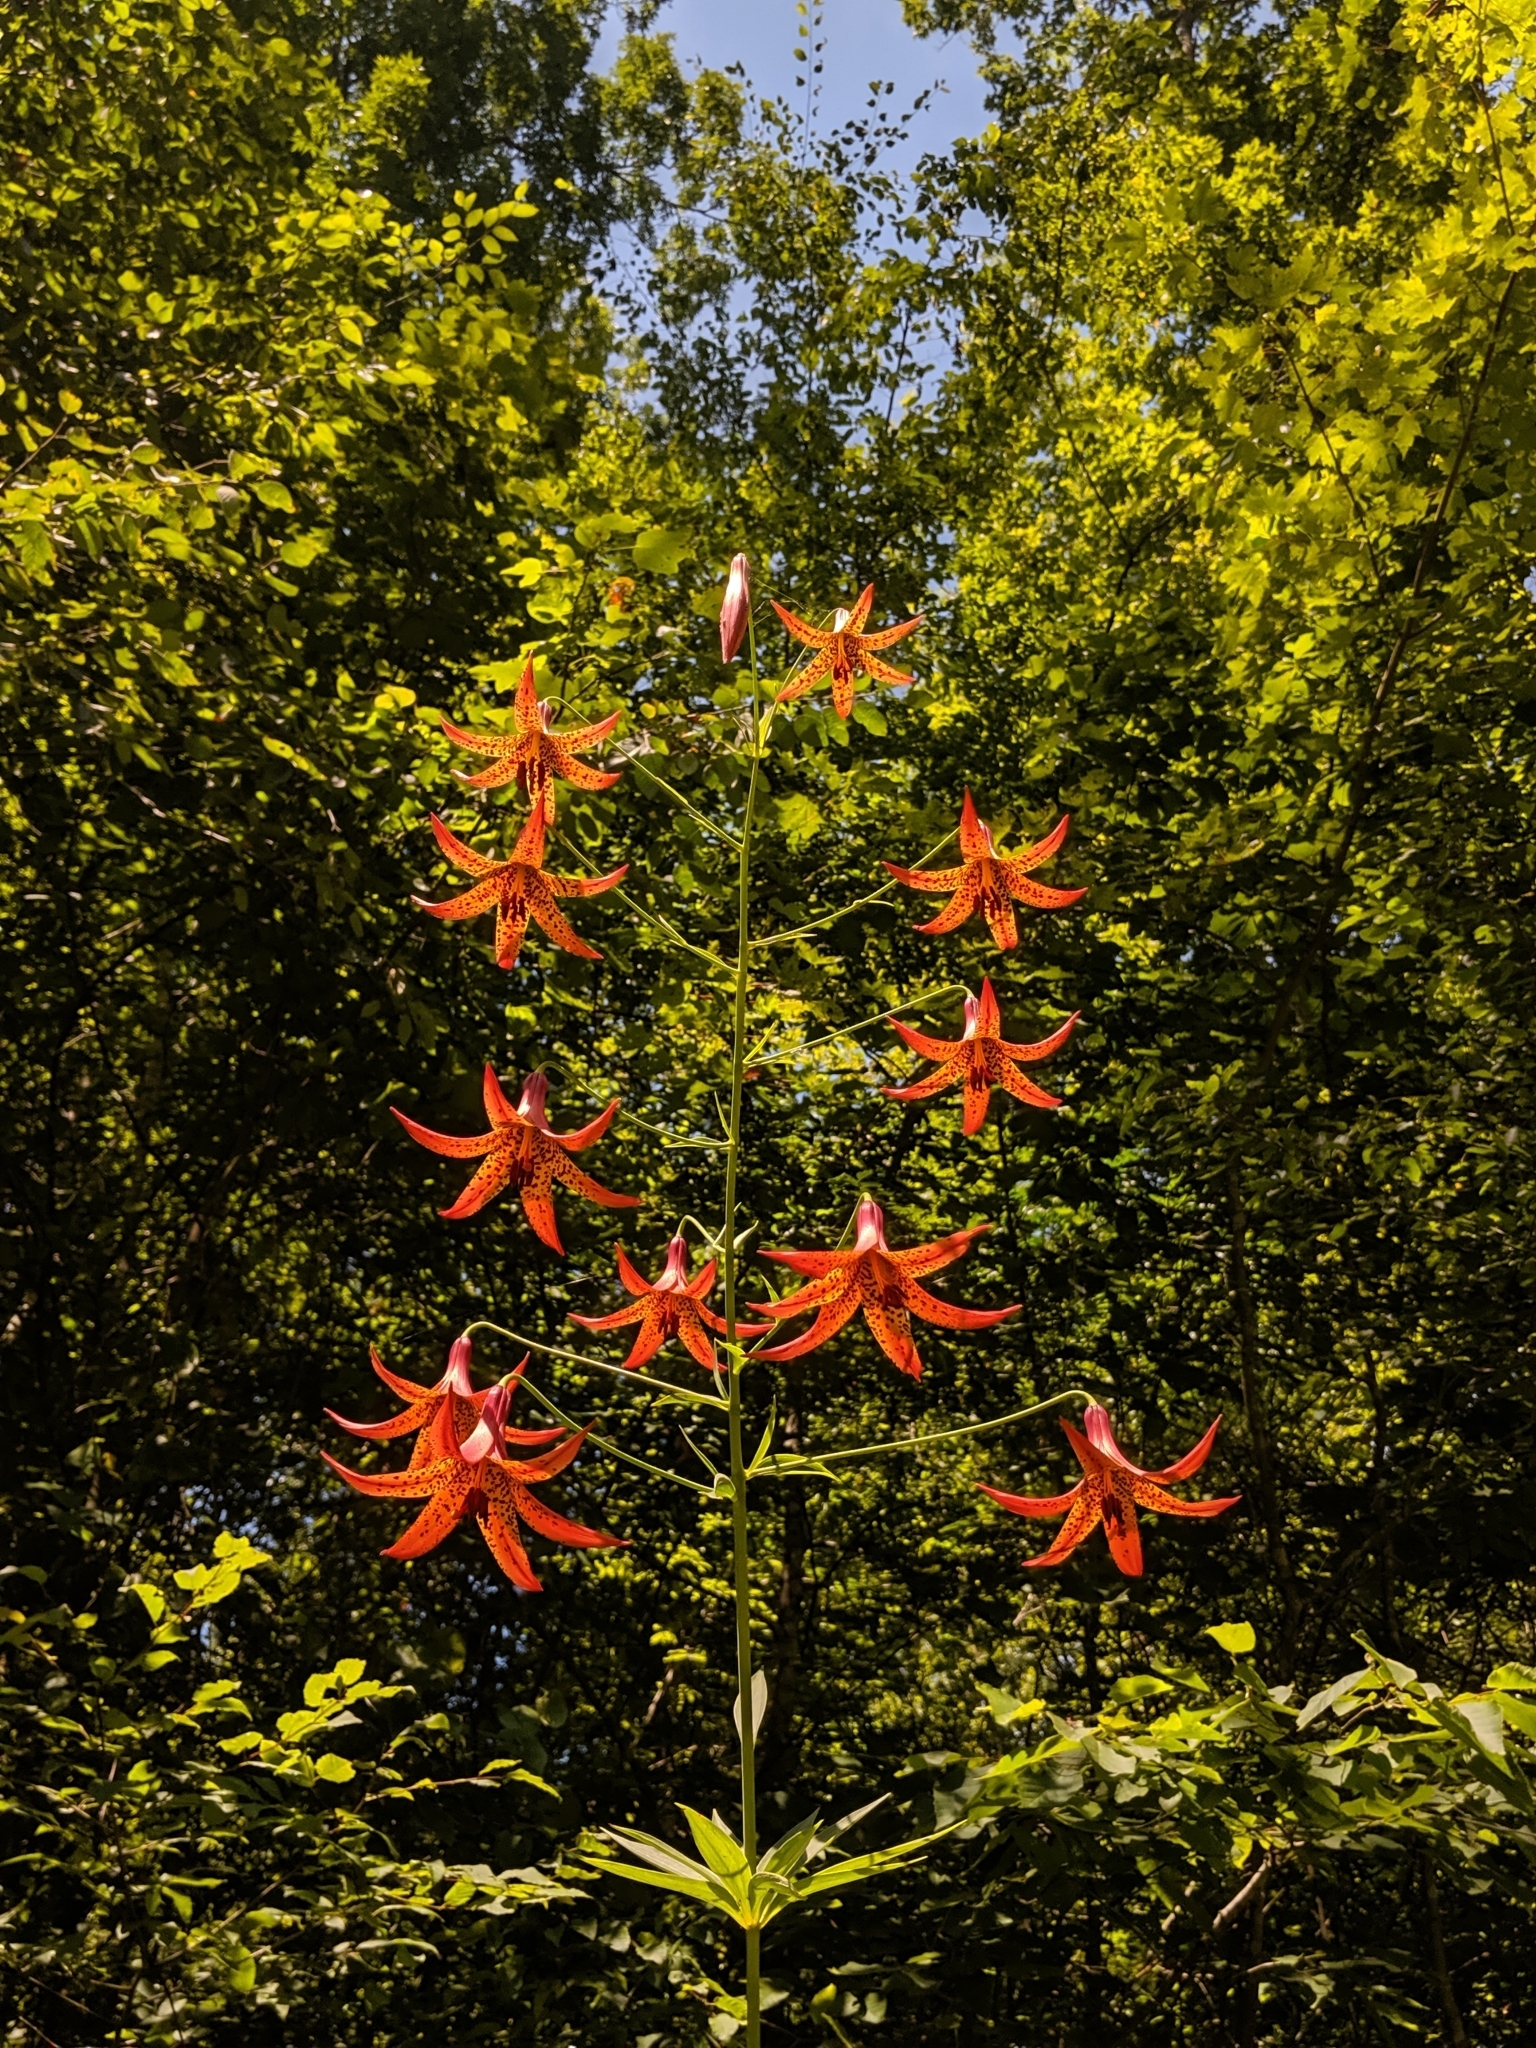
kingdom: Plantae
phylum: Tracheophyta
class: Liliopsida
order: Liliales
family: Liliaceae
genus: Lilium
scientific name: Lilium canadense
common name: Canada lily
